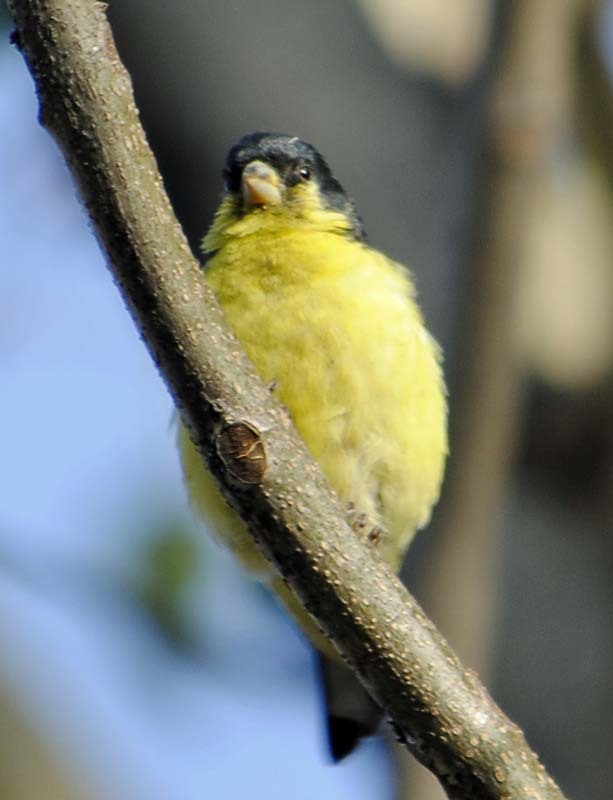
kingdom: Animalia
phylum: Chordata
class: Aves
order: Passeriformes
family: Fringillidae
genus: Spinus
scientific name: Spinus psaltria
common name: Lesser goldfinch
